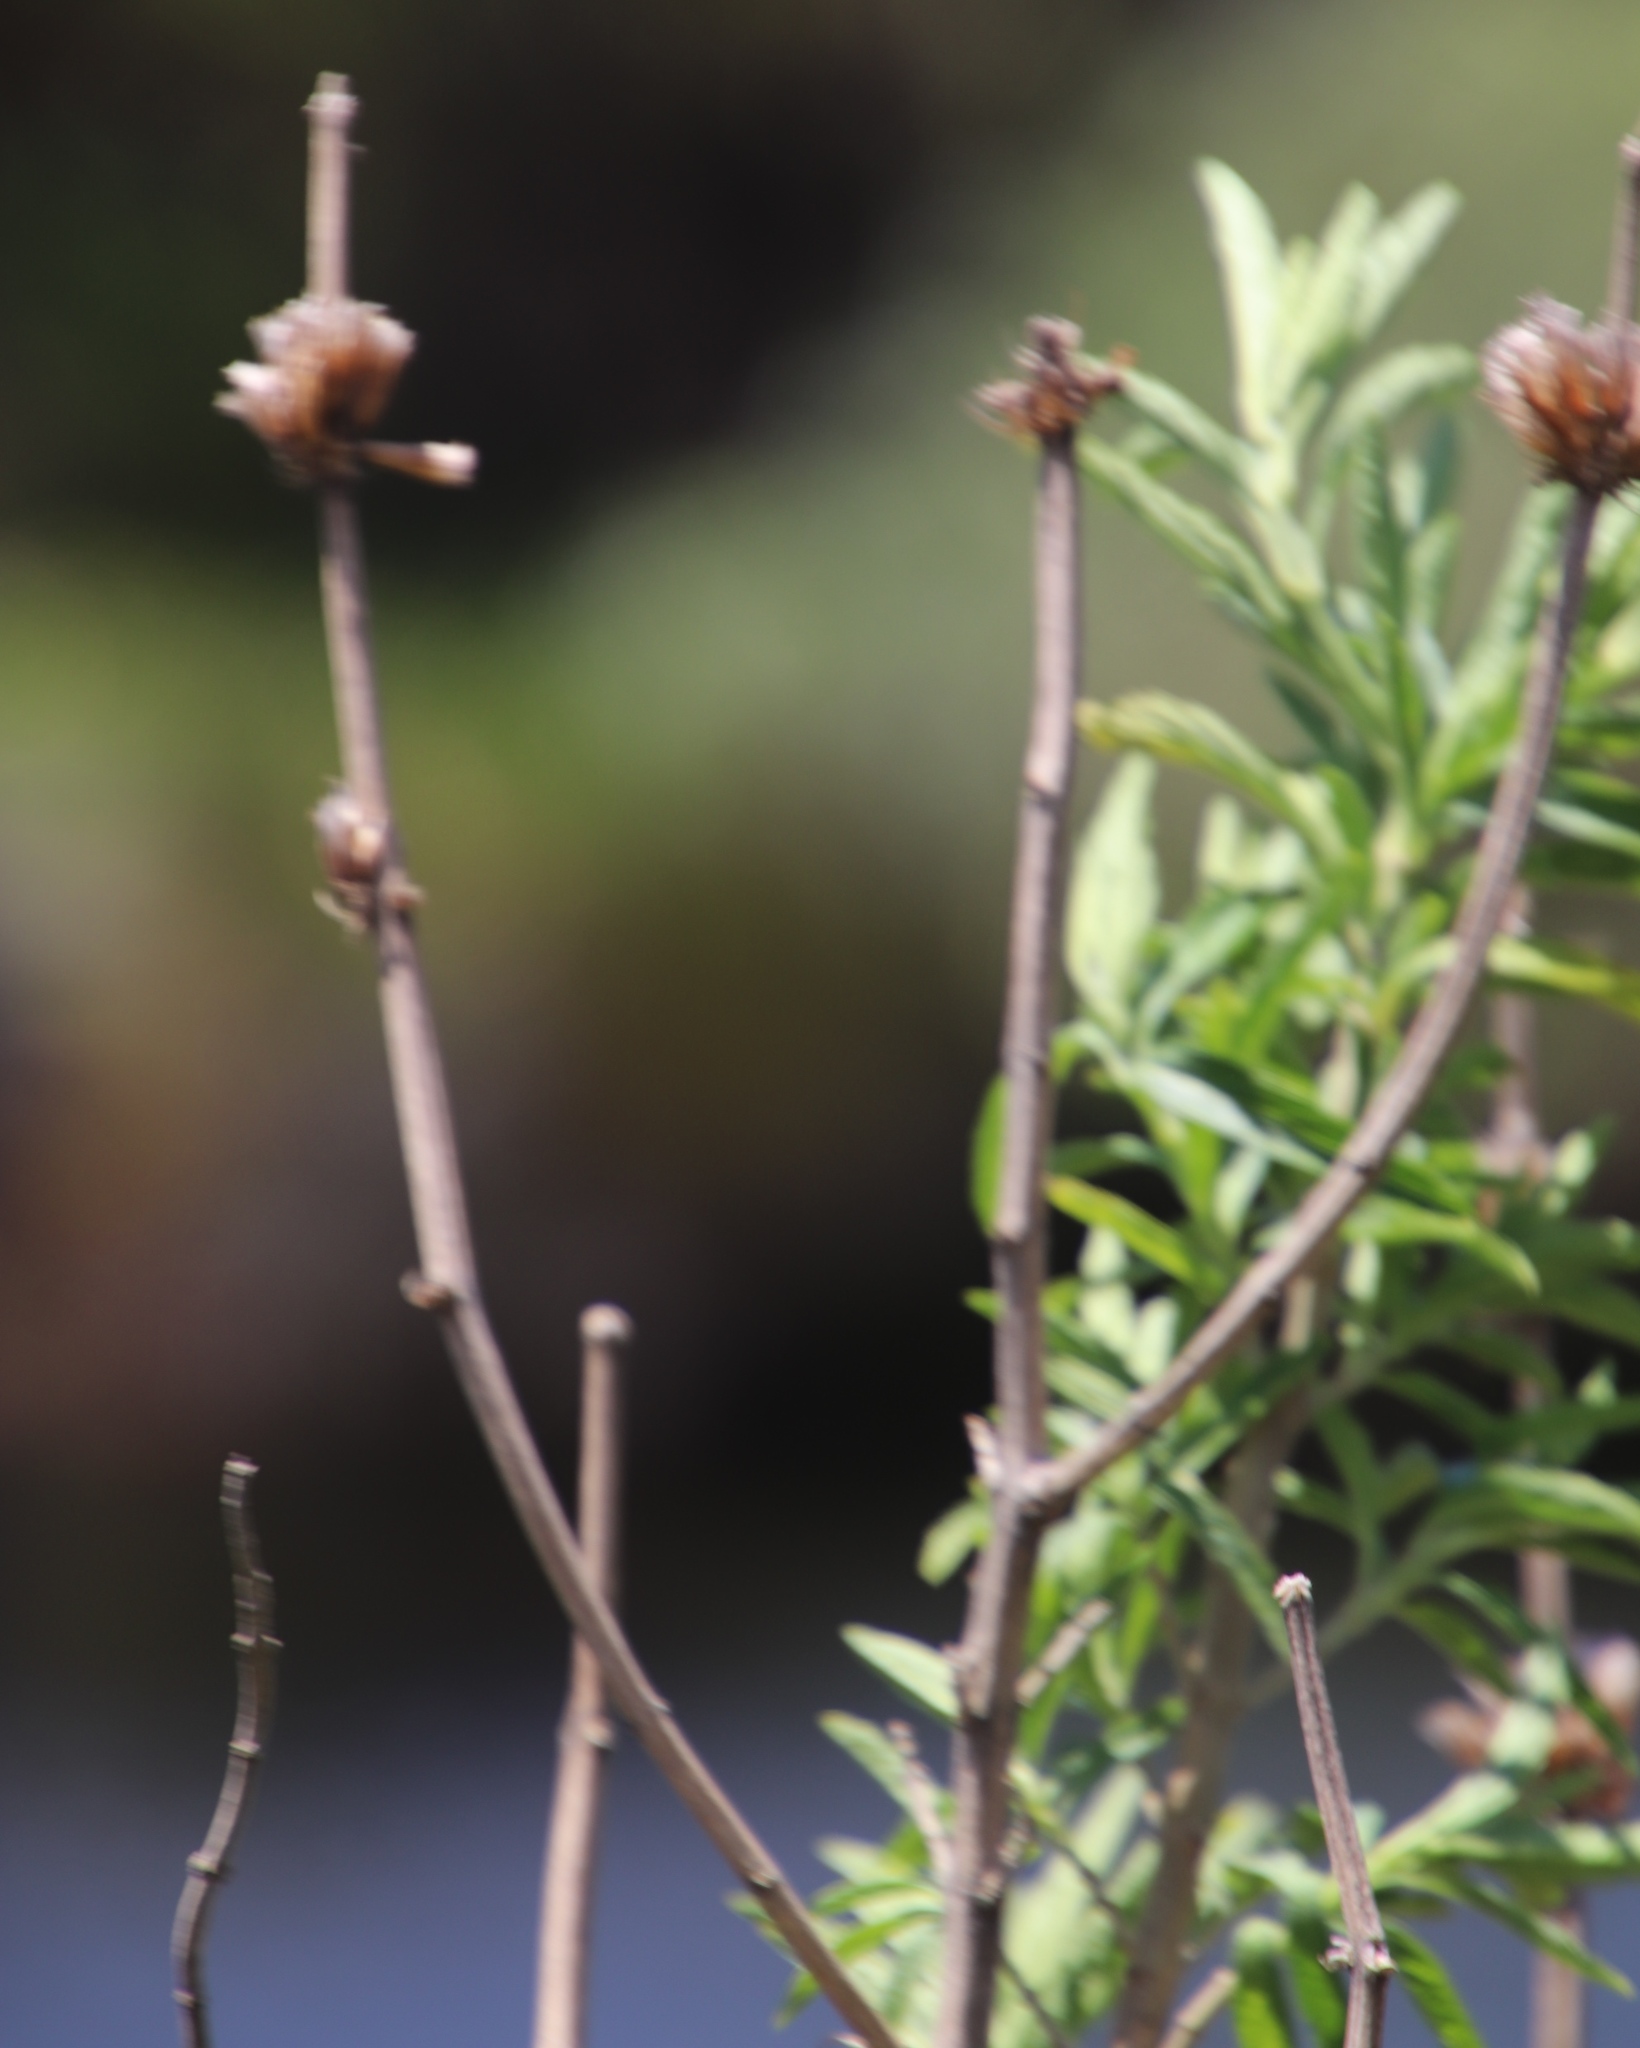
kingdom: Plantae
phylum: Tracheophyta
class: Magnoliopsida
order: Lamiales
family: Lamiaceae
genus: Leonotis
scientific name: Leonotis leonurus
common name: Lion's ear
